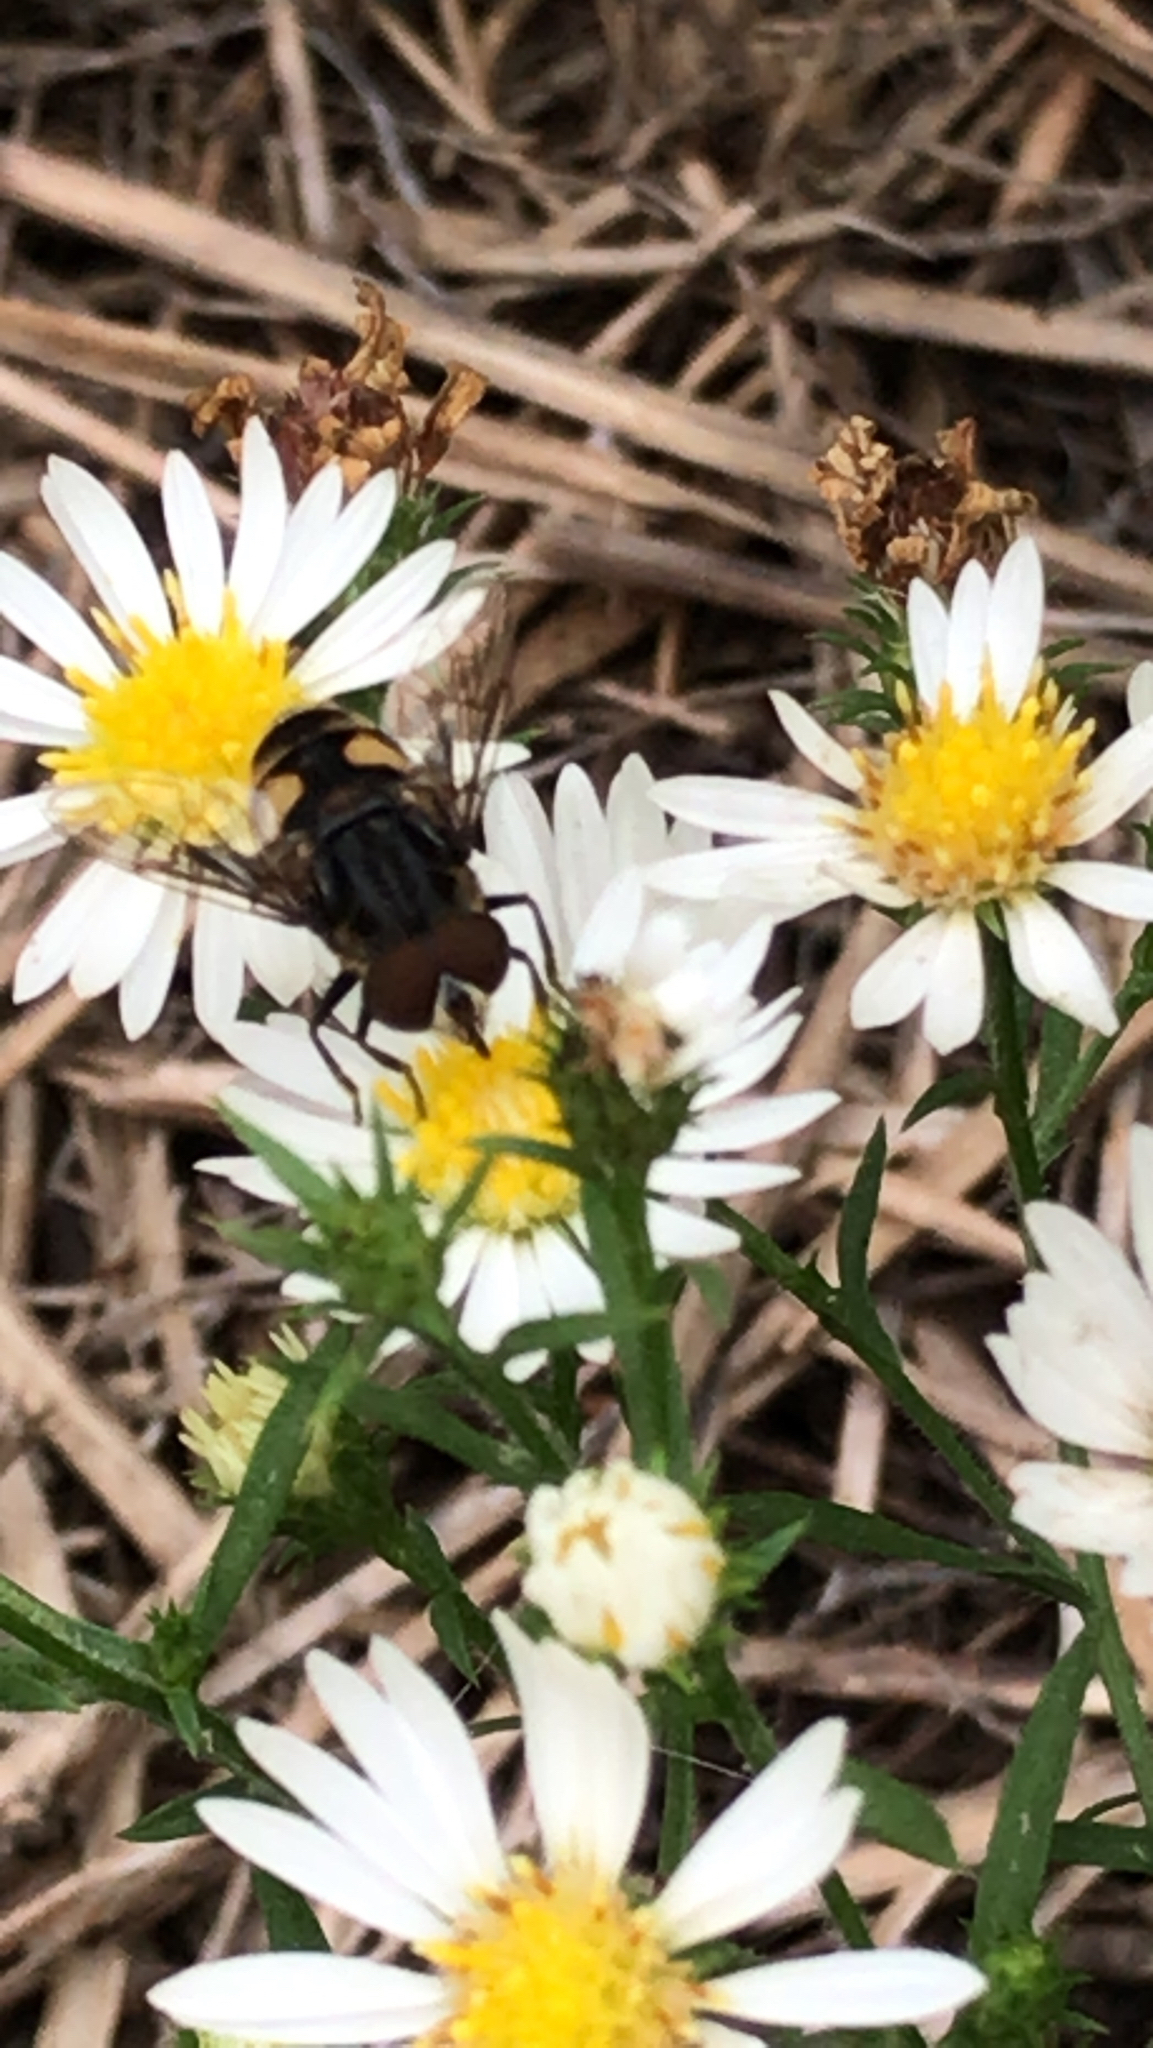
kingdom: Animalia
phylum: Arthropoda
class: Insecta
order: Diptera
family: Syrphidae
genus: Palpada
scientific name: Palpada furcata
